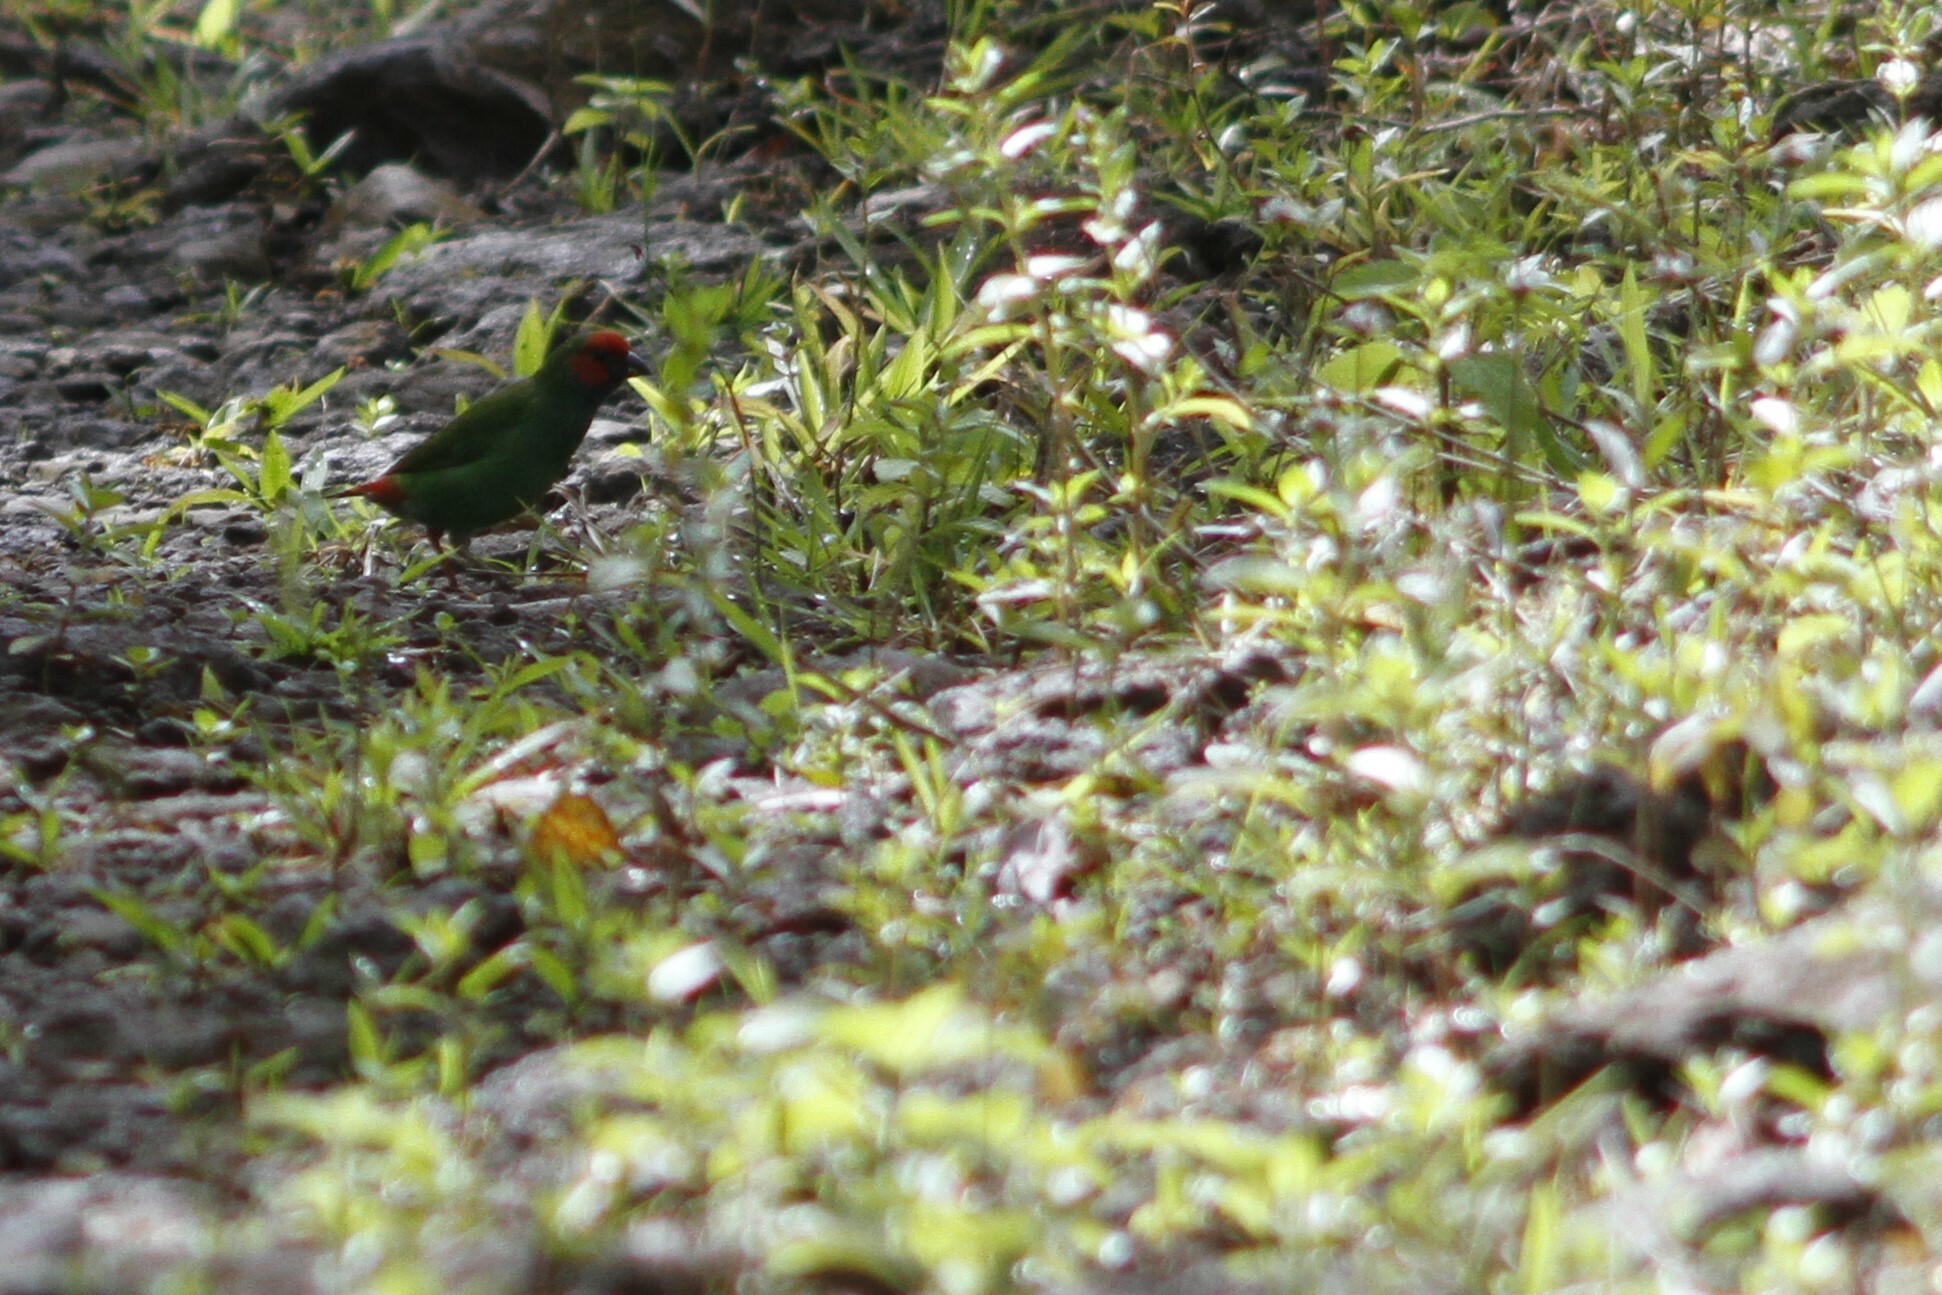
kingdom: Animalia
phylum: Chordata
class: Aves
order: Passeriformes
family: Estrildidae
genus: Erythrura
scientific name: Erythrura pealii
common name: Fiji parrotfinch
